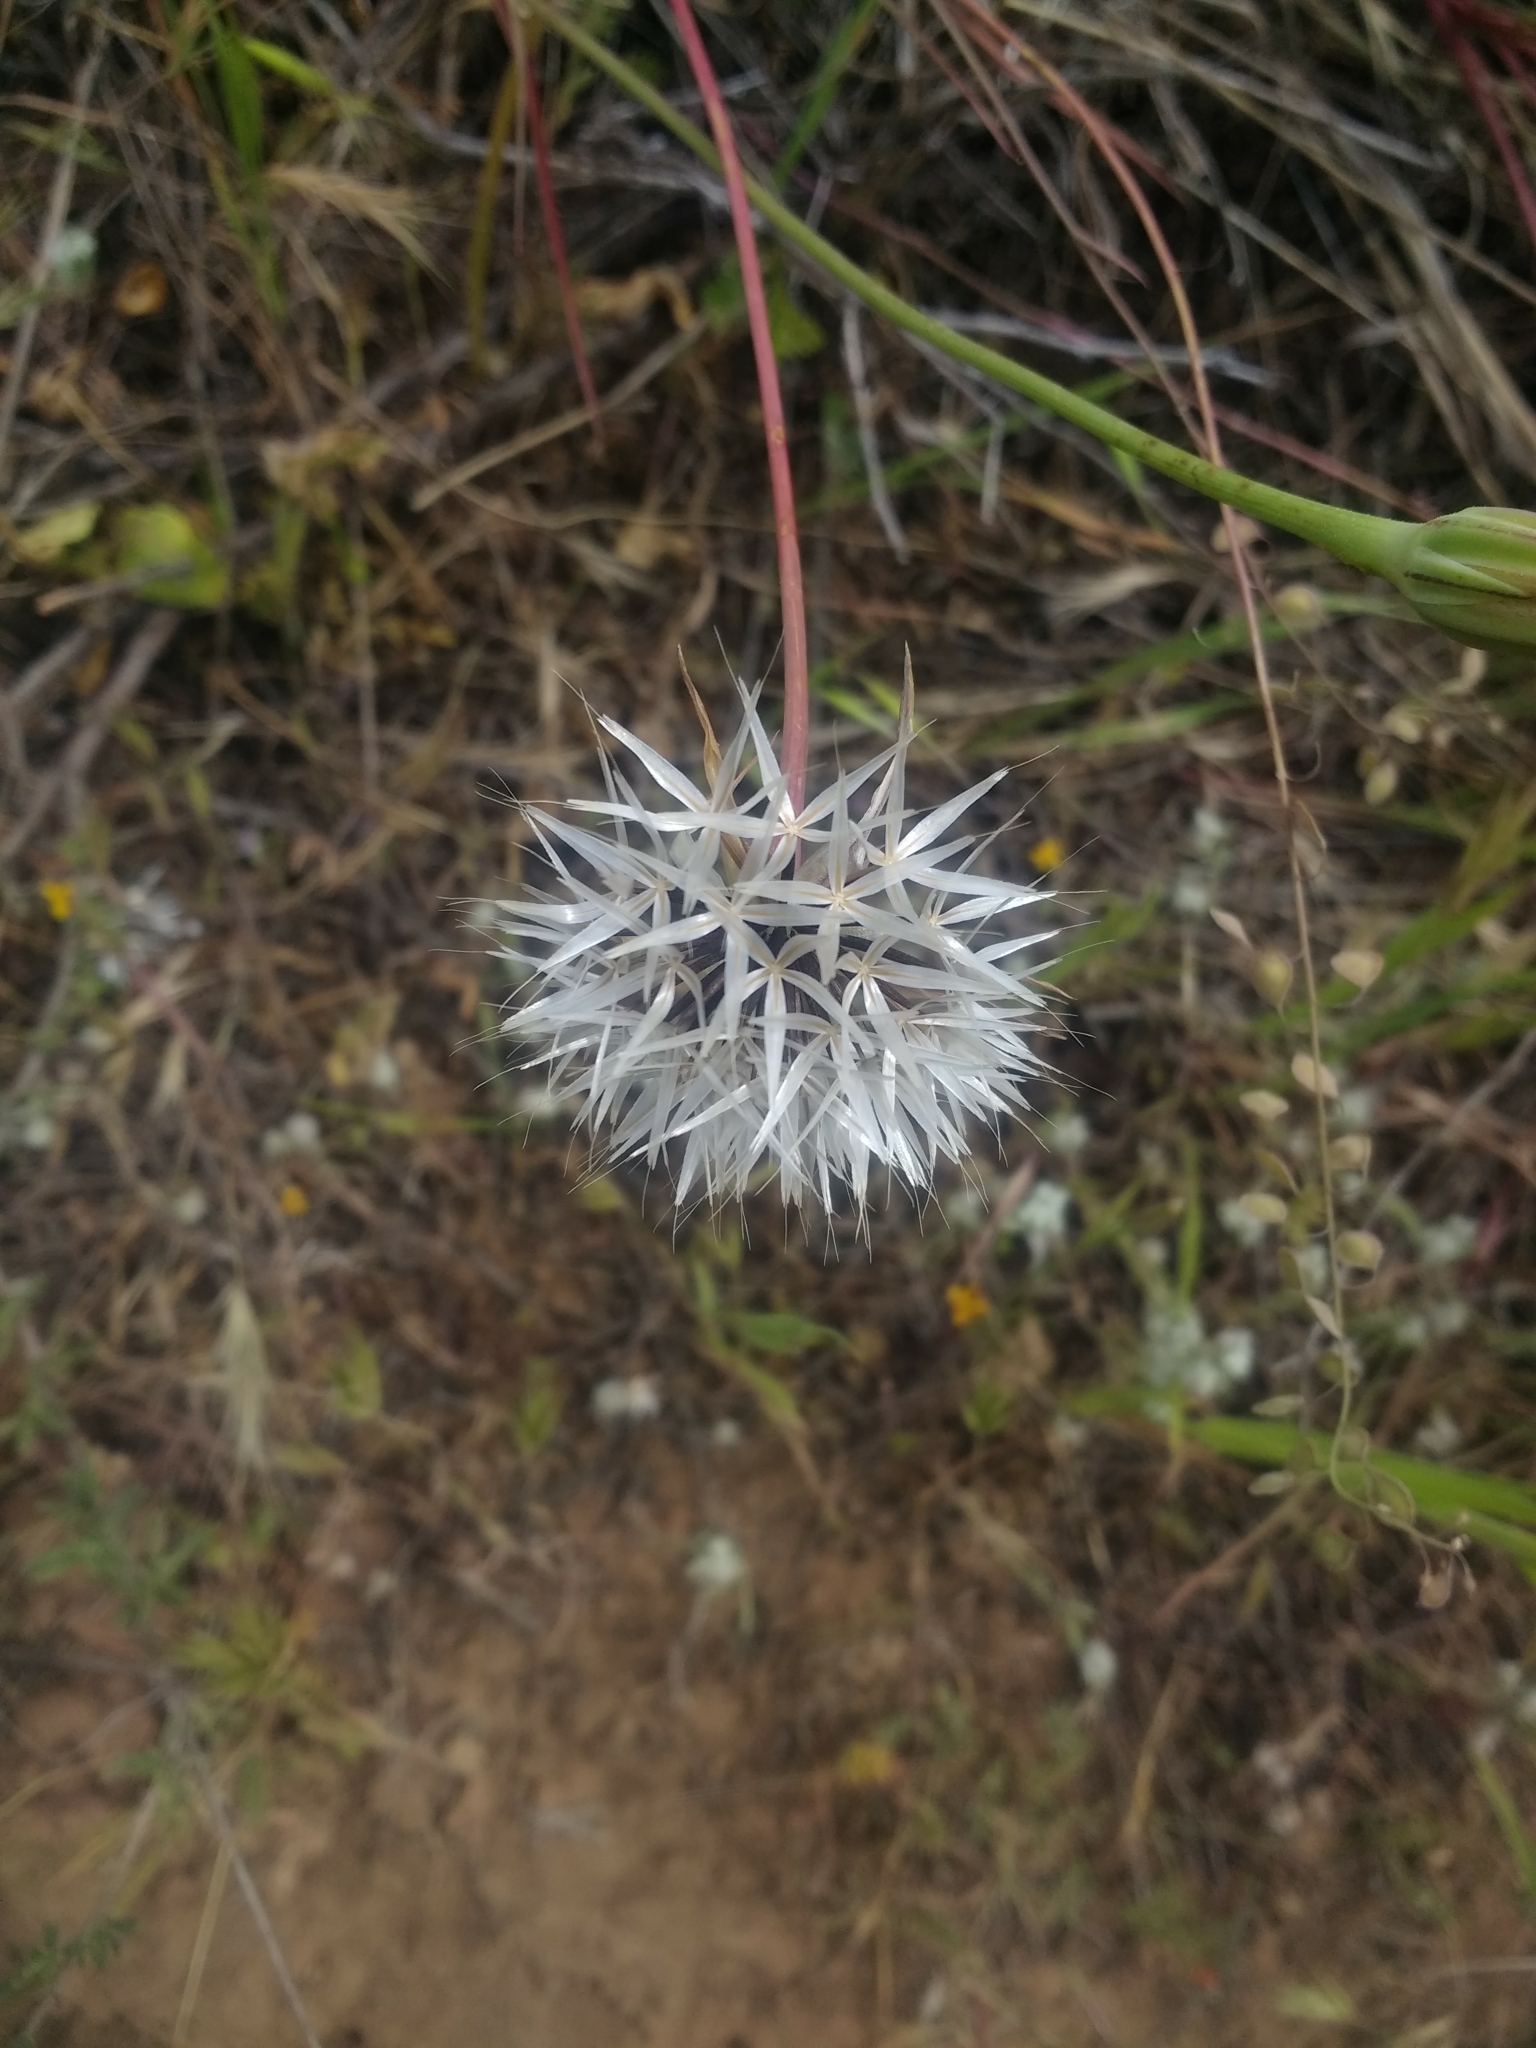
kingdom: Plantae
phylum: Tracheophyta
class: Magnoliopsida
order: Asterales
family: Asteraceae
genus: Microseris
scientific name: Microseris lindleyi
